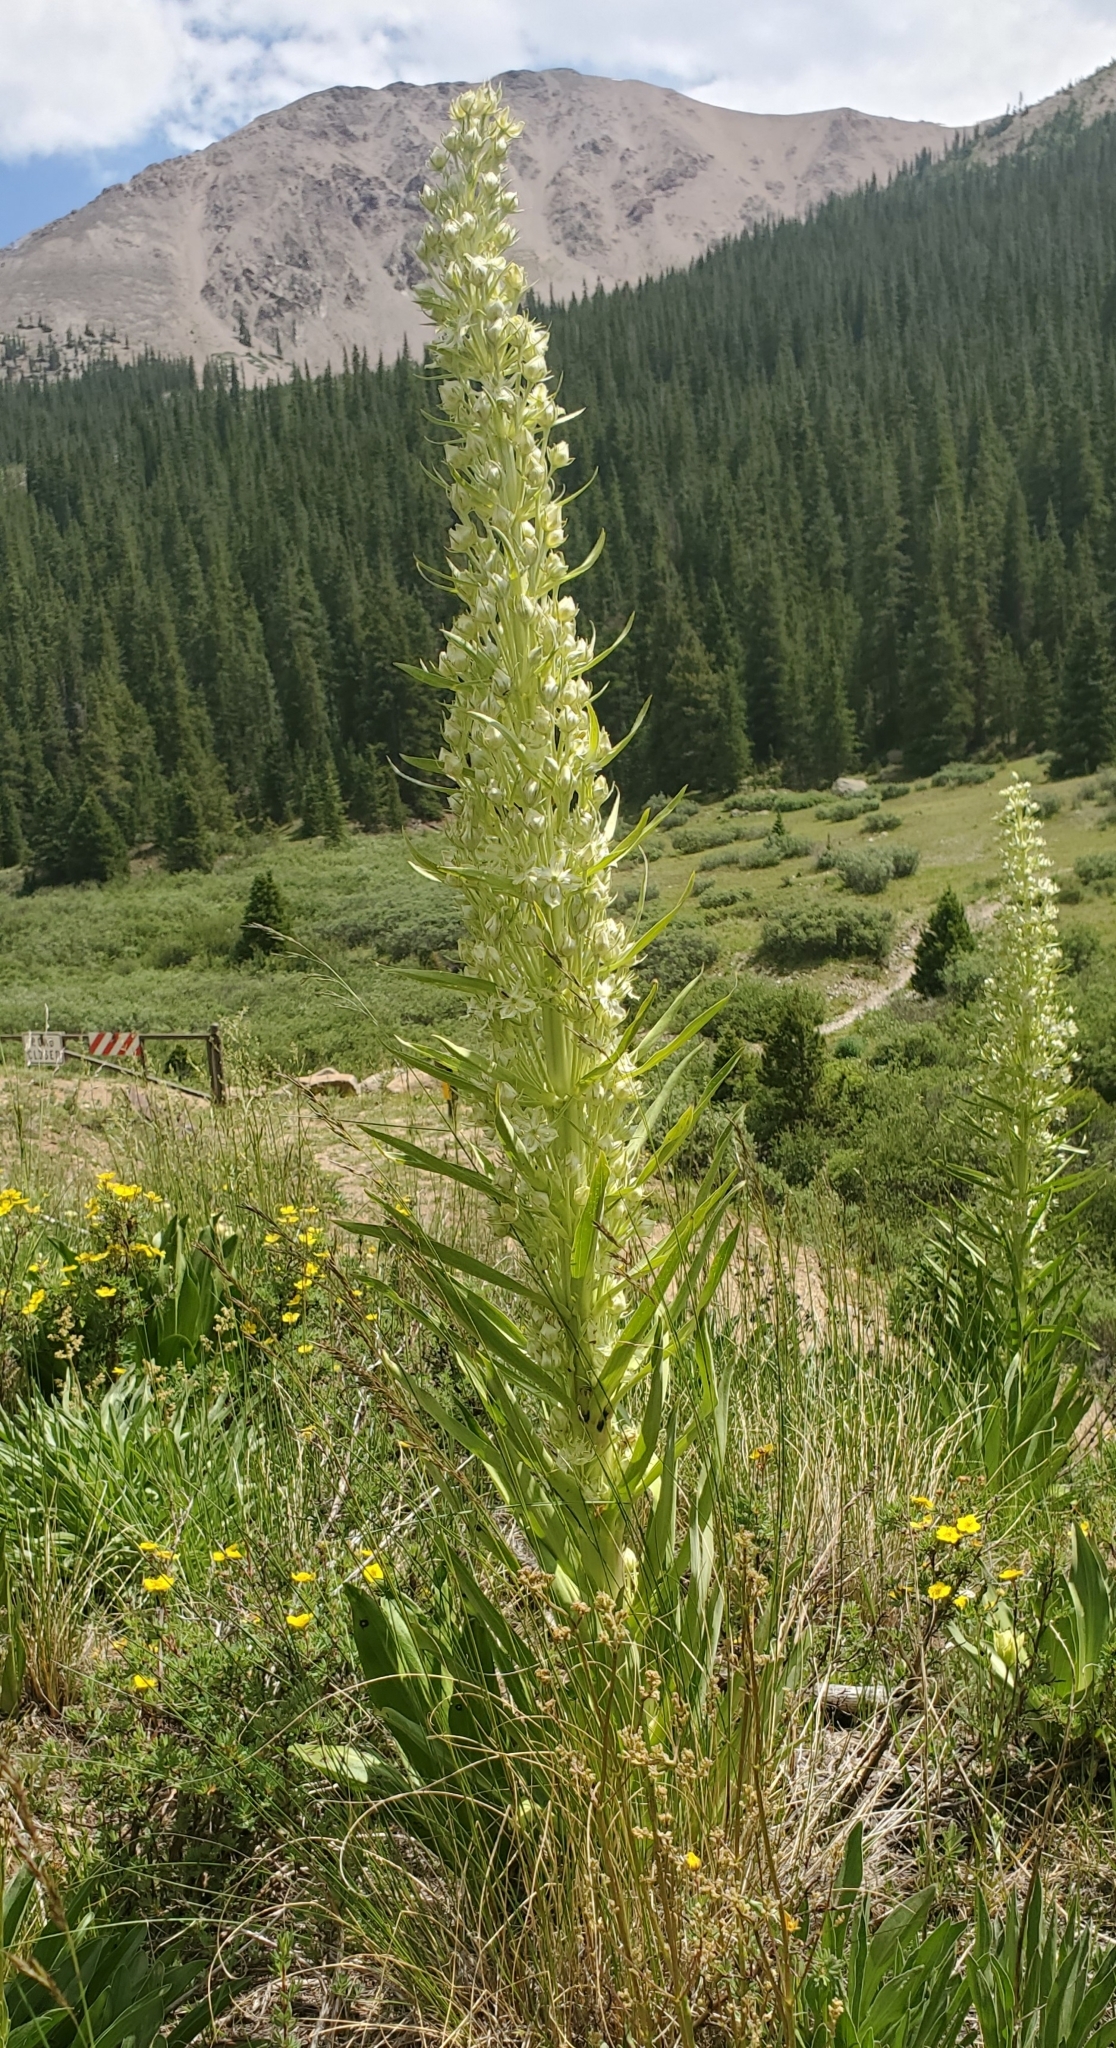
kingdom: Plantae
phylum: Tracheophyta
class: Magnoliopsida
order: Gentianales
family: Gentianaceae
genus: Frasera
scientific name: Frasera speciosa
